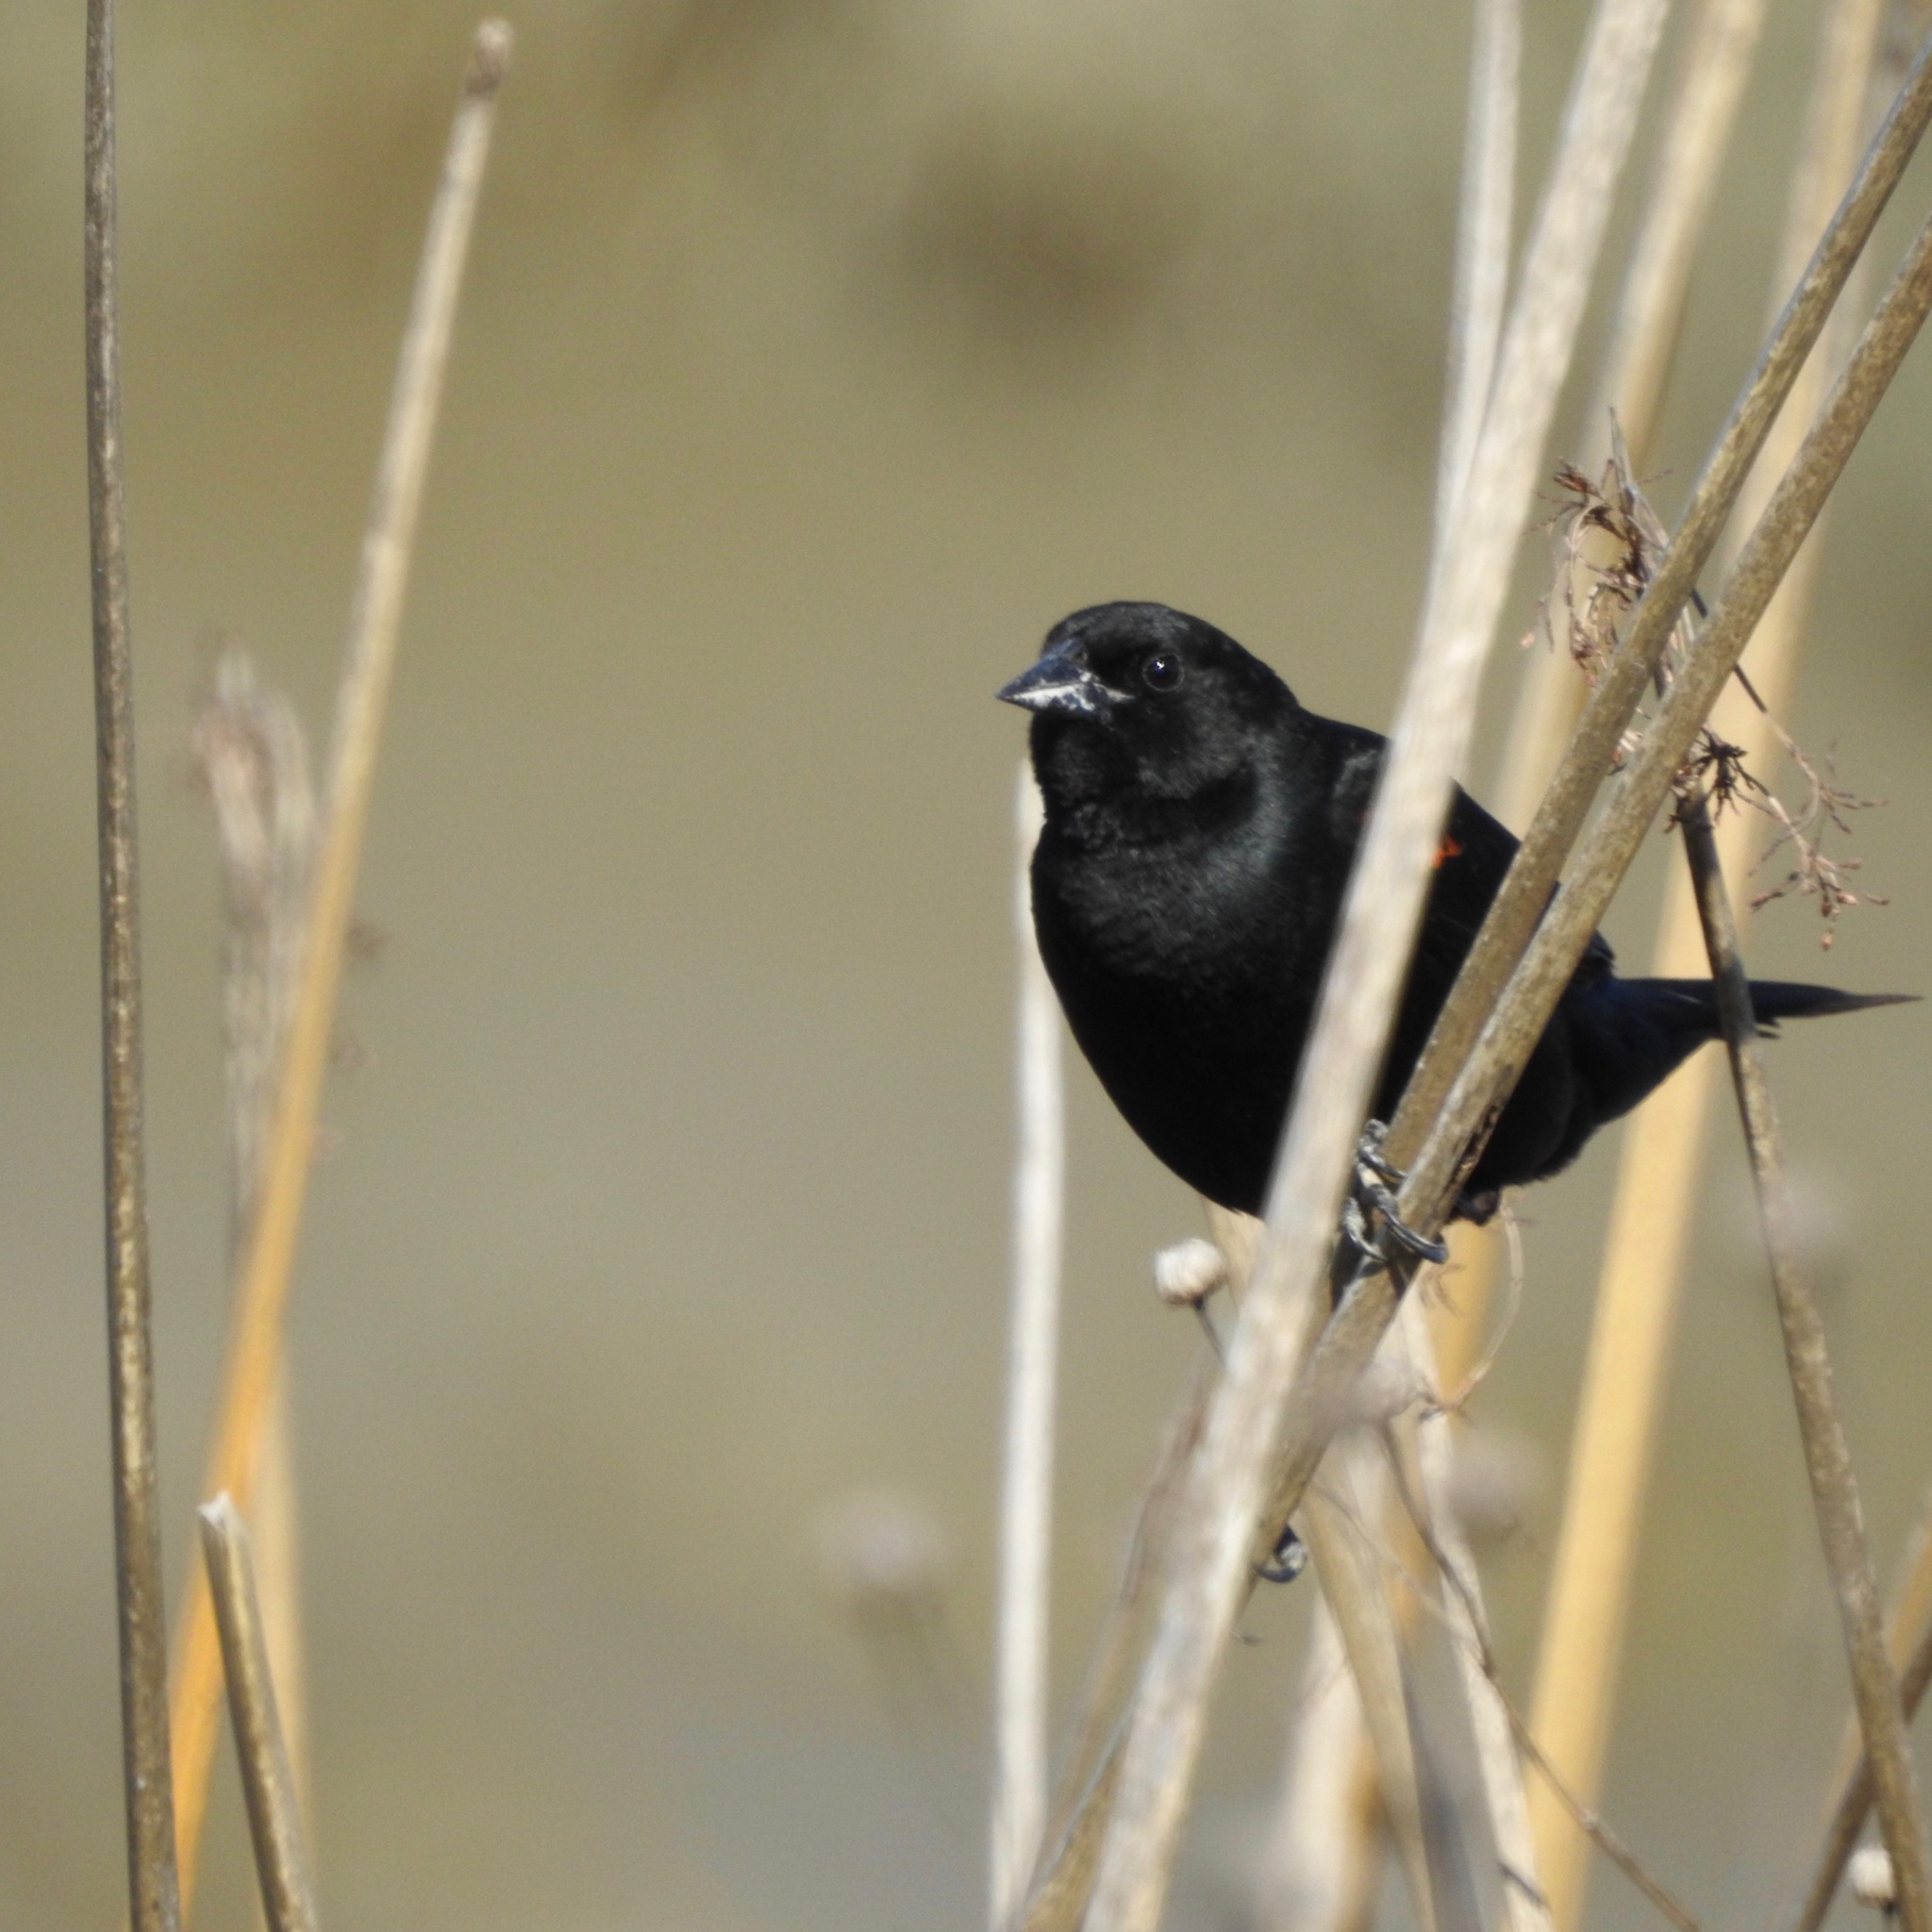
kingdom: Animalia
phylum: Chordata
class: Aves
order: Passeriformes
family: Icteridae
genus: Agelaius
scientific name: Agelaius phoeniceus
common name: Red-winged blackbird
